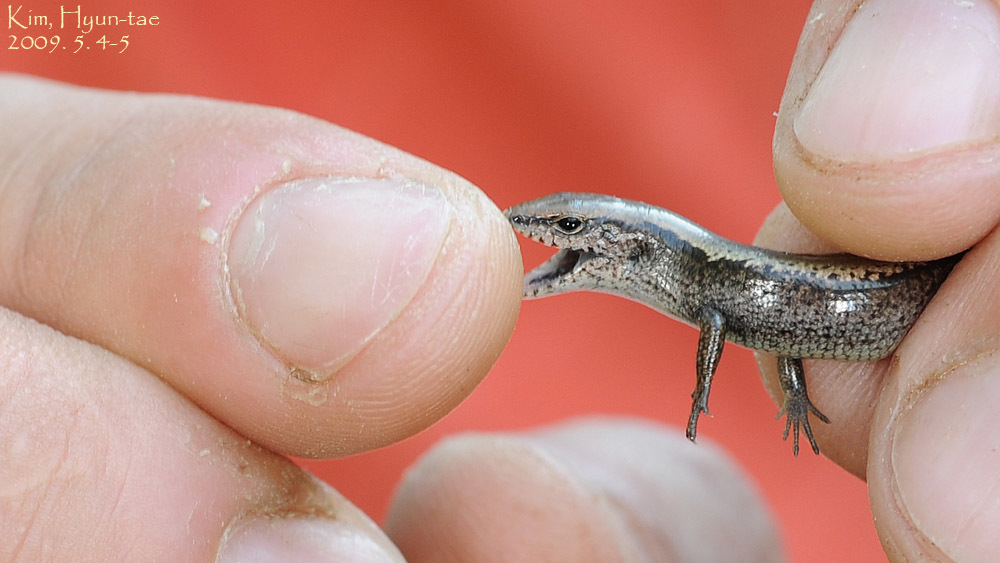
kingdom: Animalia
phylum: Chordata
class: Squamata
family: Scincidae
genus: Scincella
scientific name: Scincella vandenburghi
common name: Tsushima smooth skink
